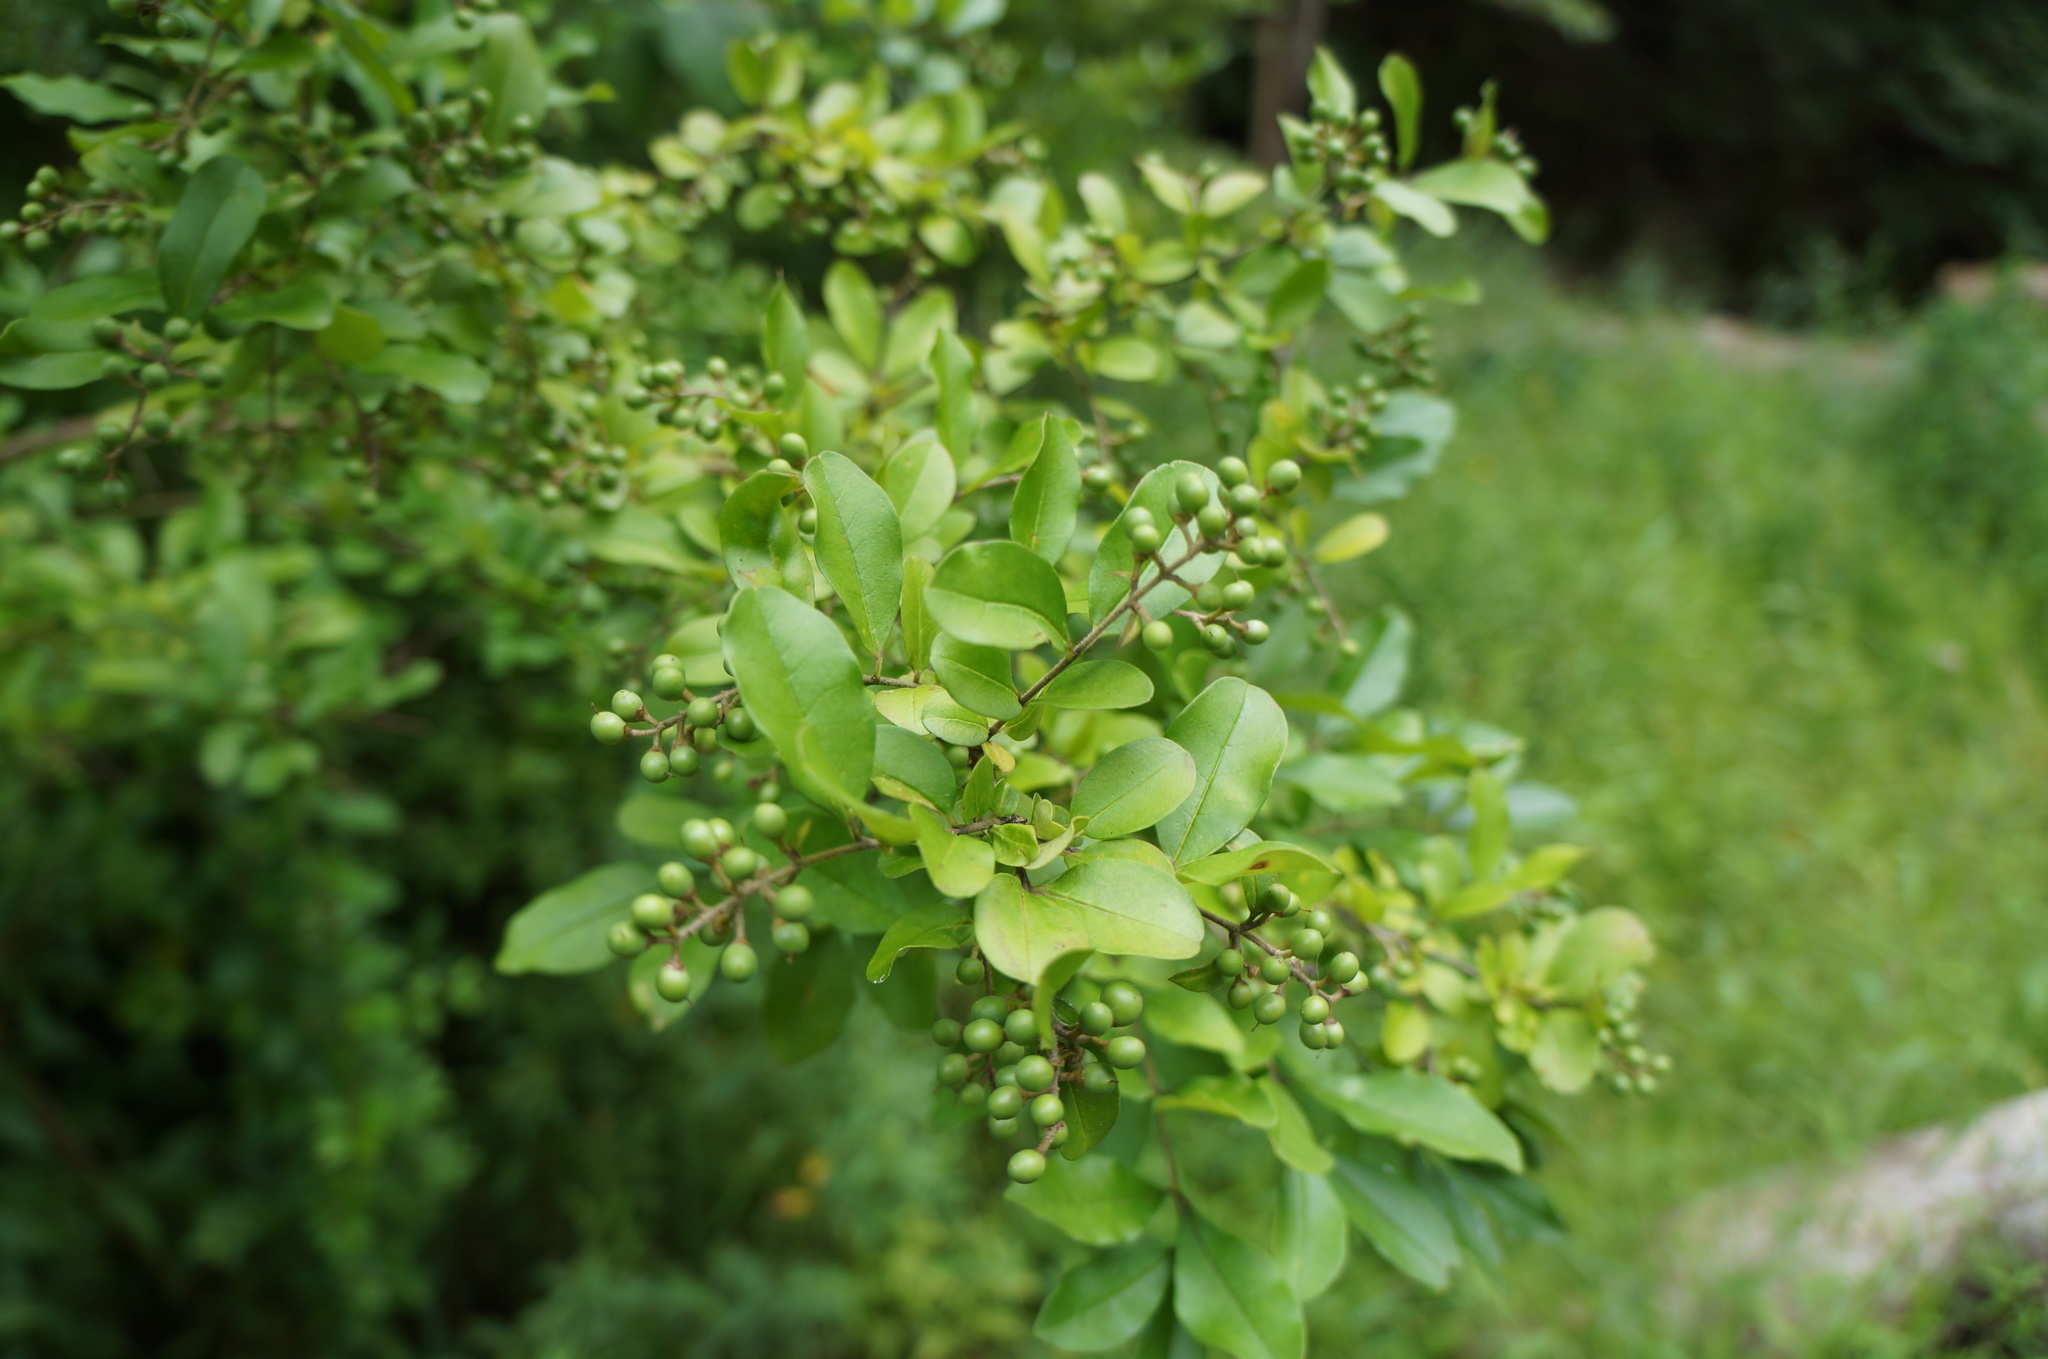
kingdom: Plantae
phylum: Tracheophyta
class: Magnoliopsida
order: Lamiales
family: Oleaceae
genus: Ligustrum
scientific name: Ligustrum sinense
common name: Chinese privet
